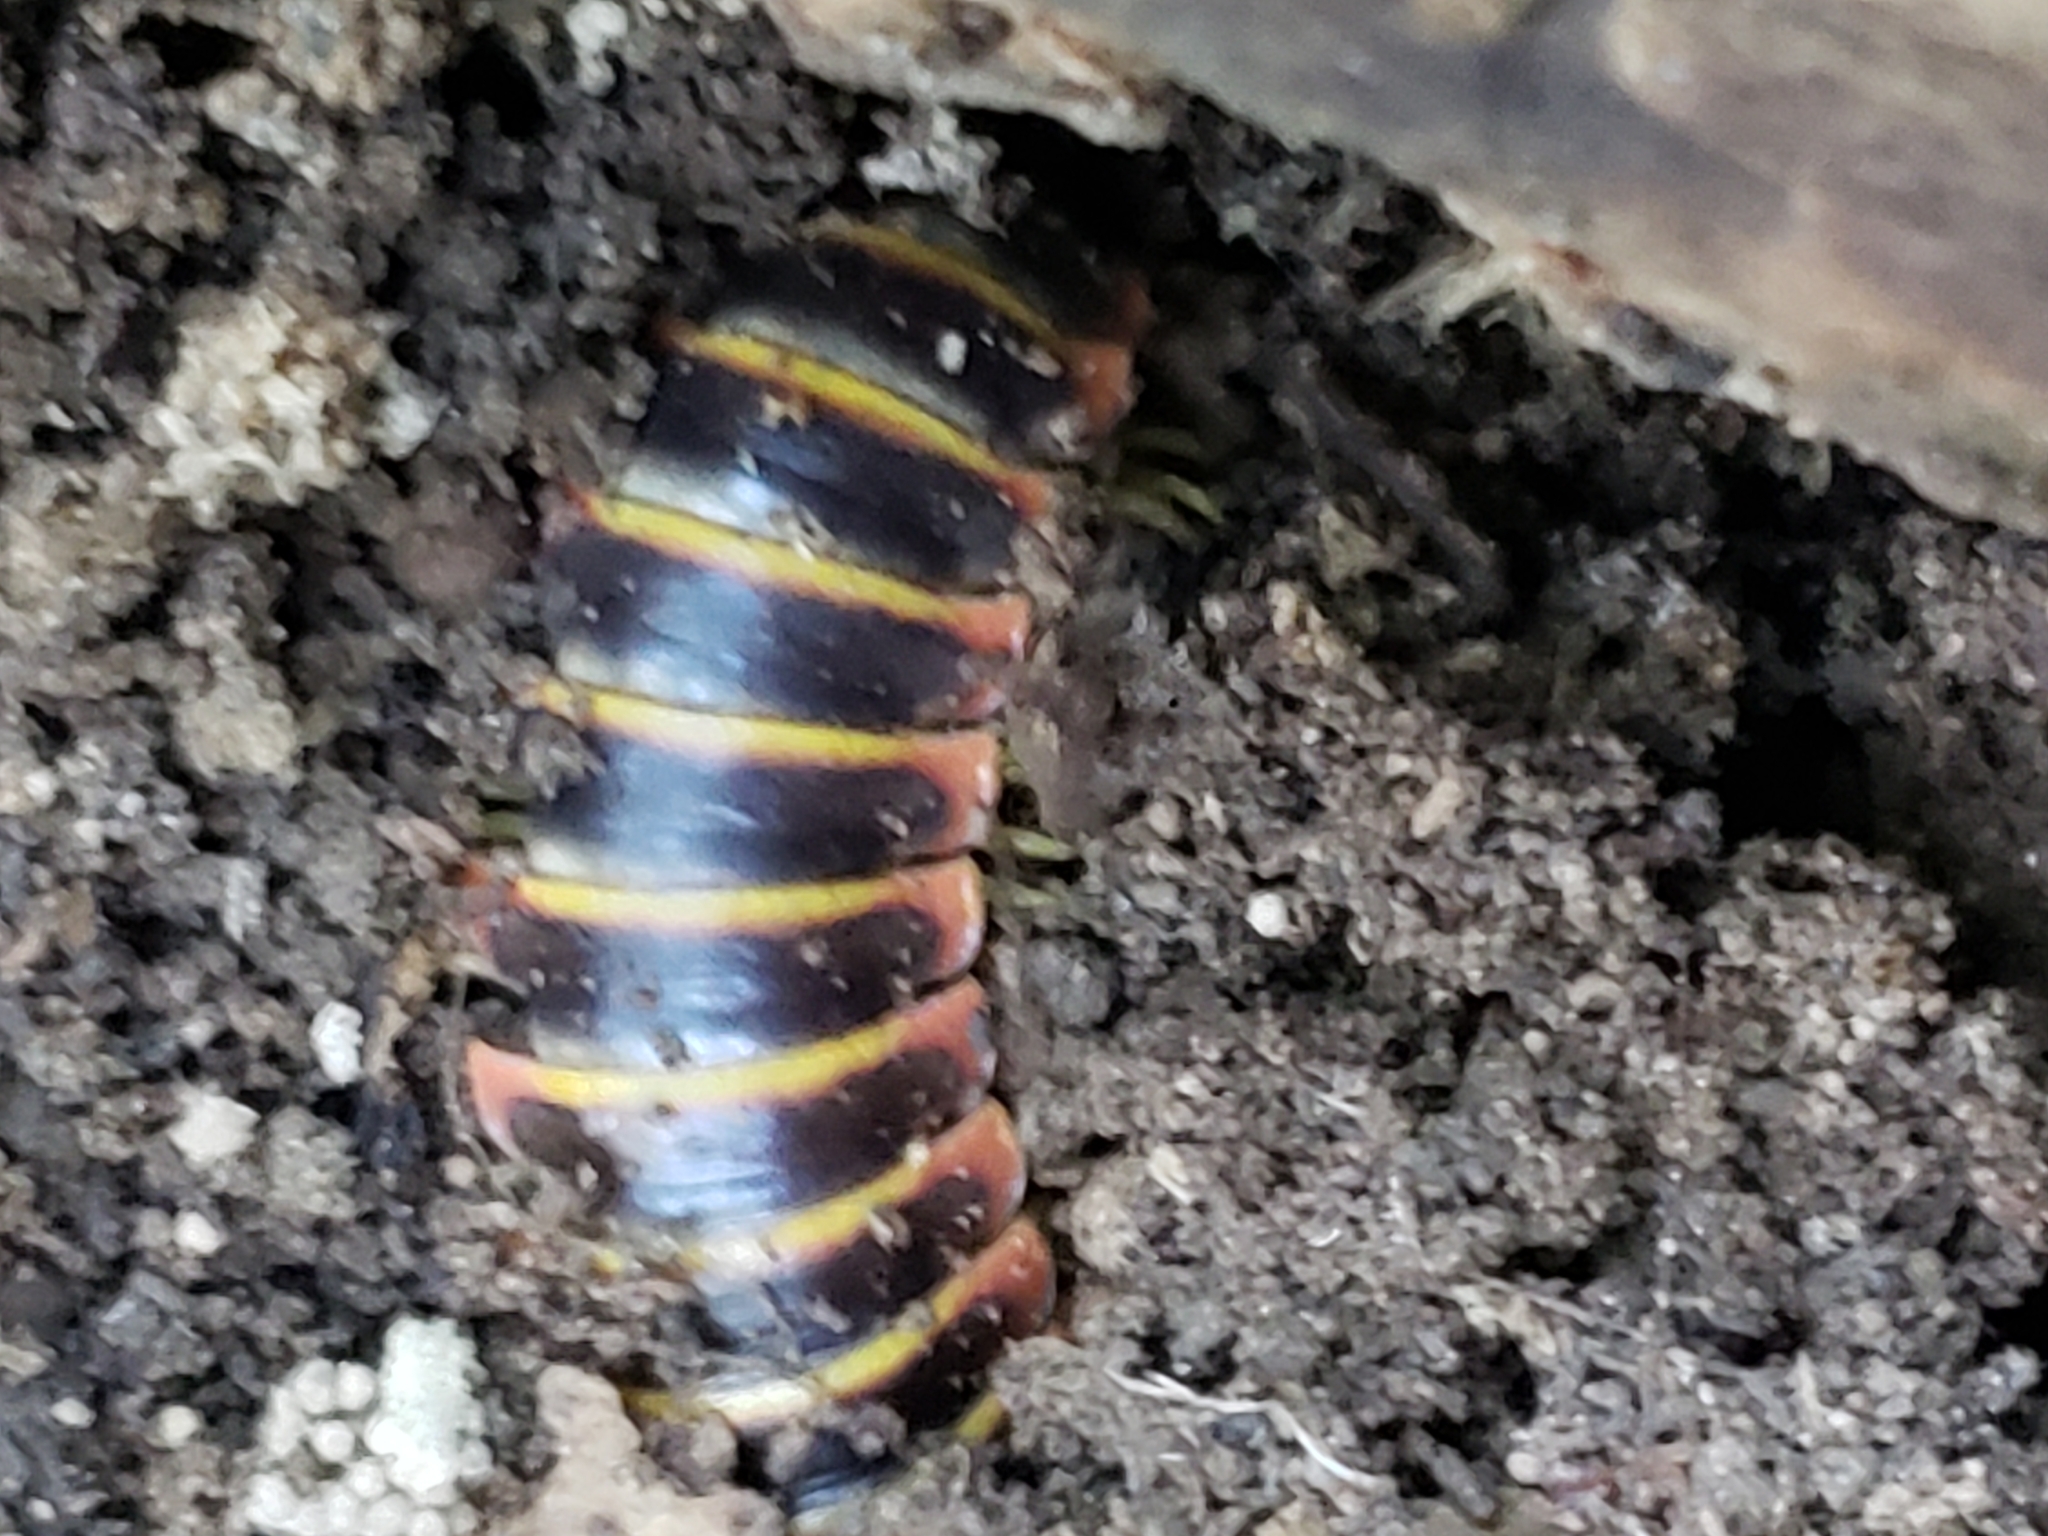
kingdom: Animalia
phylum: Arthropoda
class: Diplopoda
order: Polydesmida
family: Xystodesmidae
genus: Apheloria
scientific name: Apheloria virginiensis
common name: Black-and-gold flat millipede
